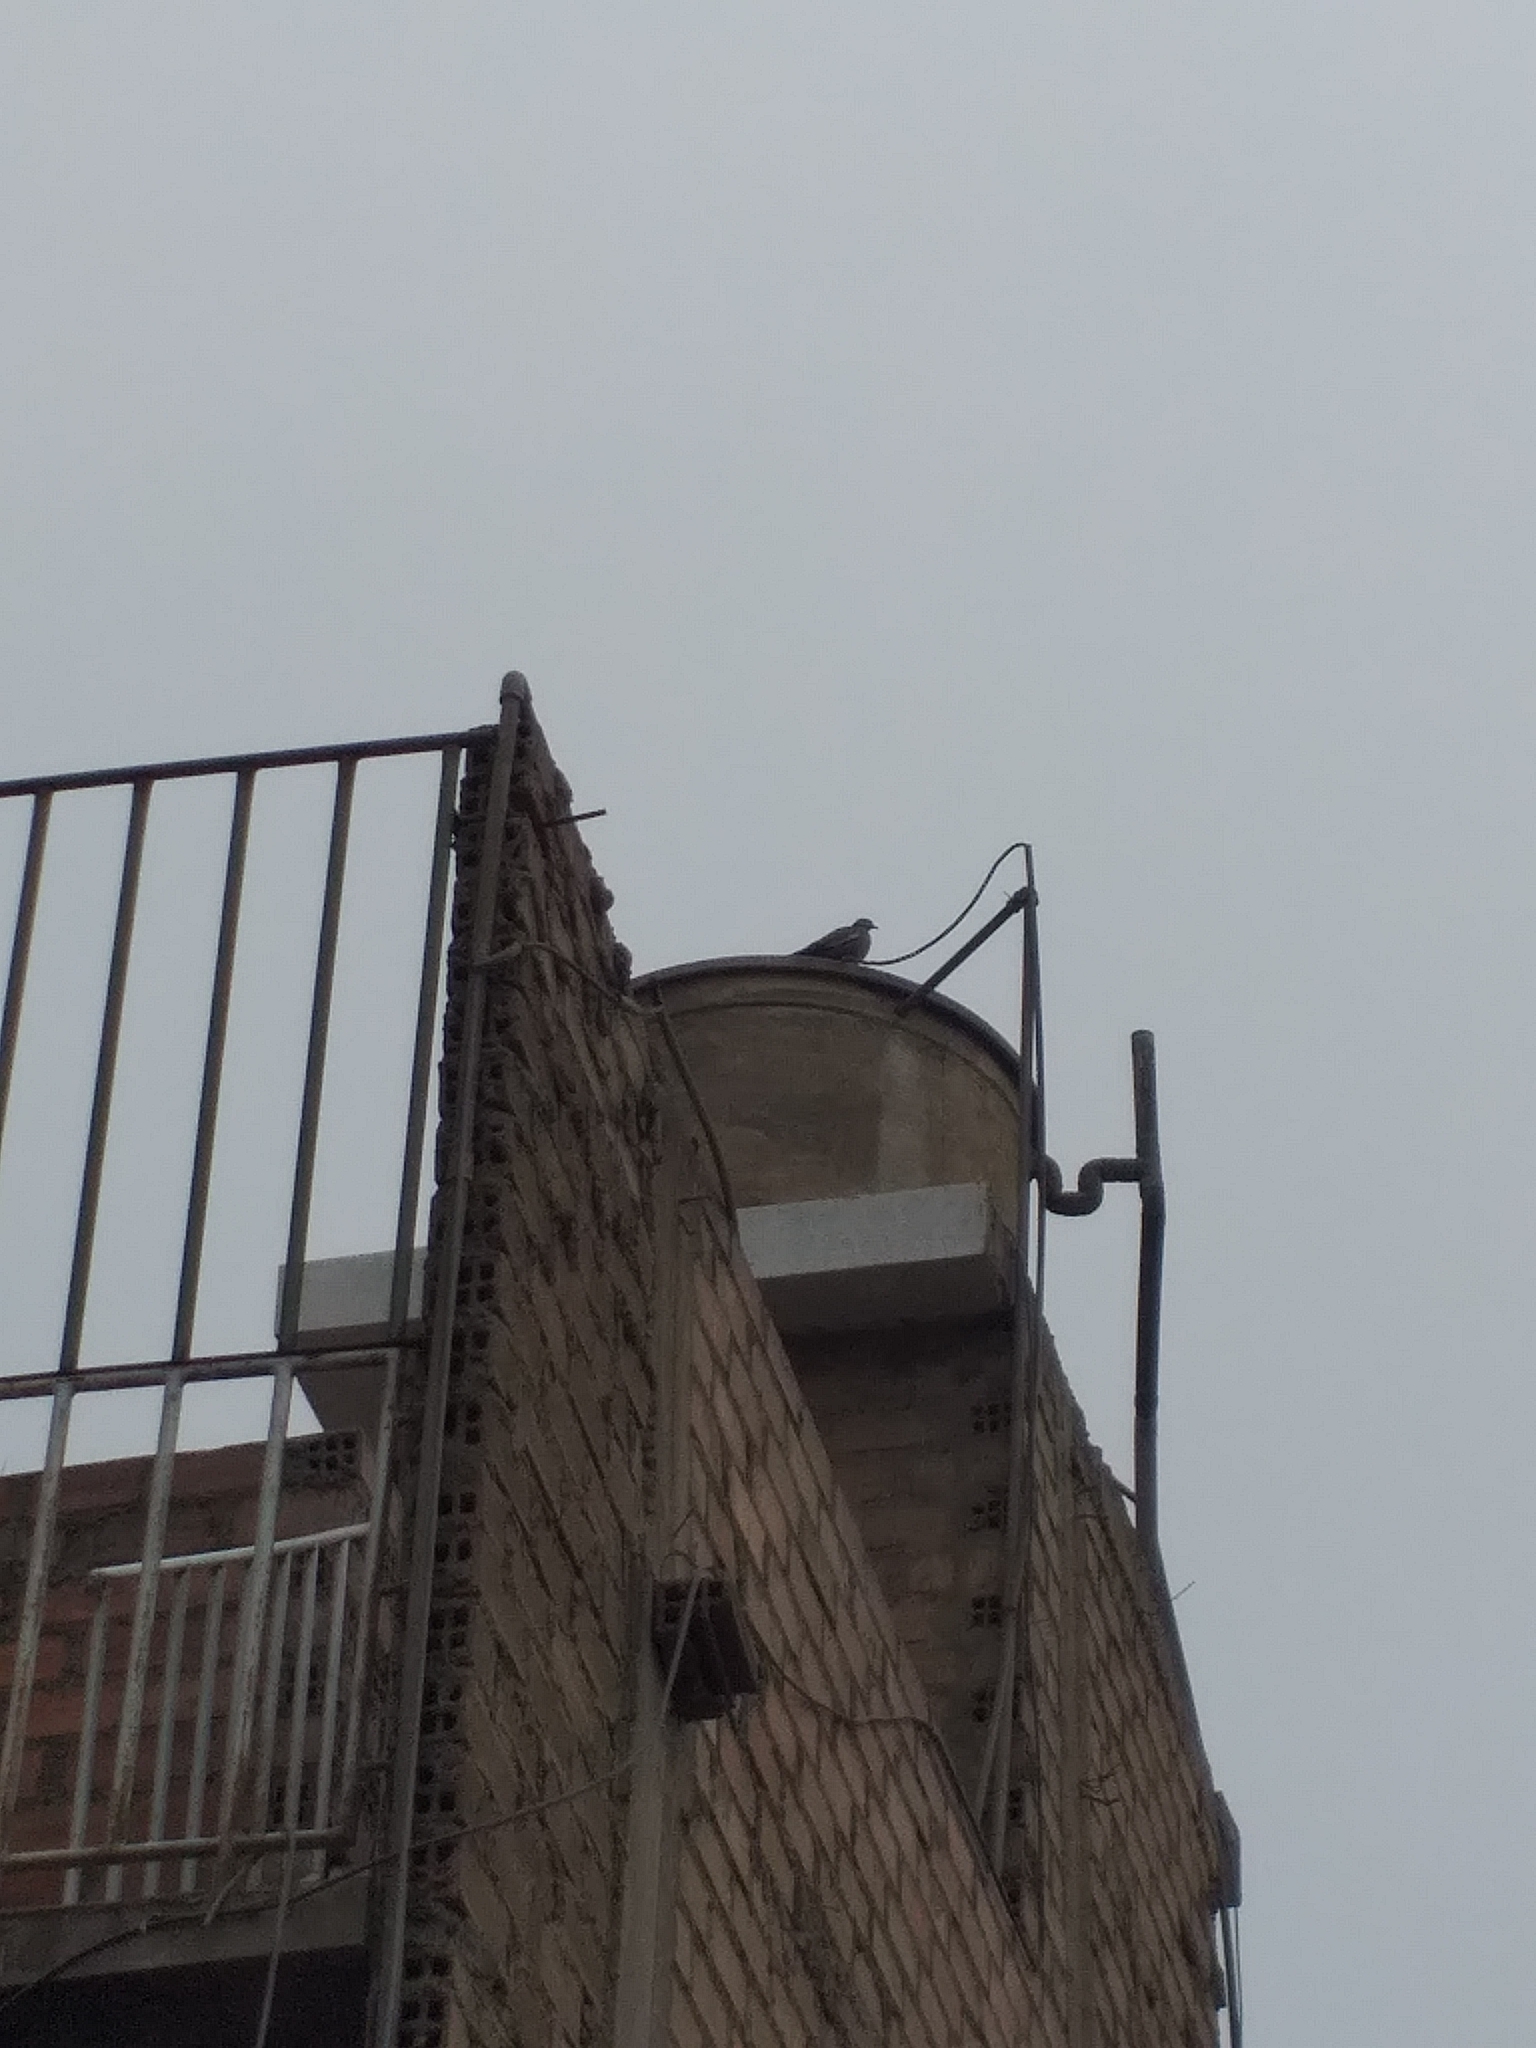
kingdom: Animalia
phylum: Chordata
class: Aves
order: Columbiformes
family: Columbidae
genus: Zenaida
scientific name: Zenaida meloda
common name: West peruvian dove
